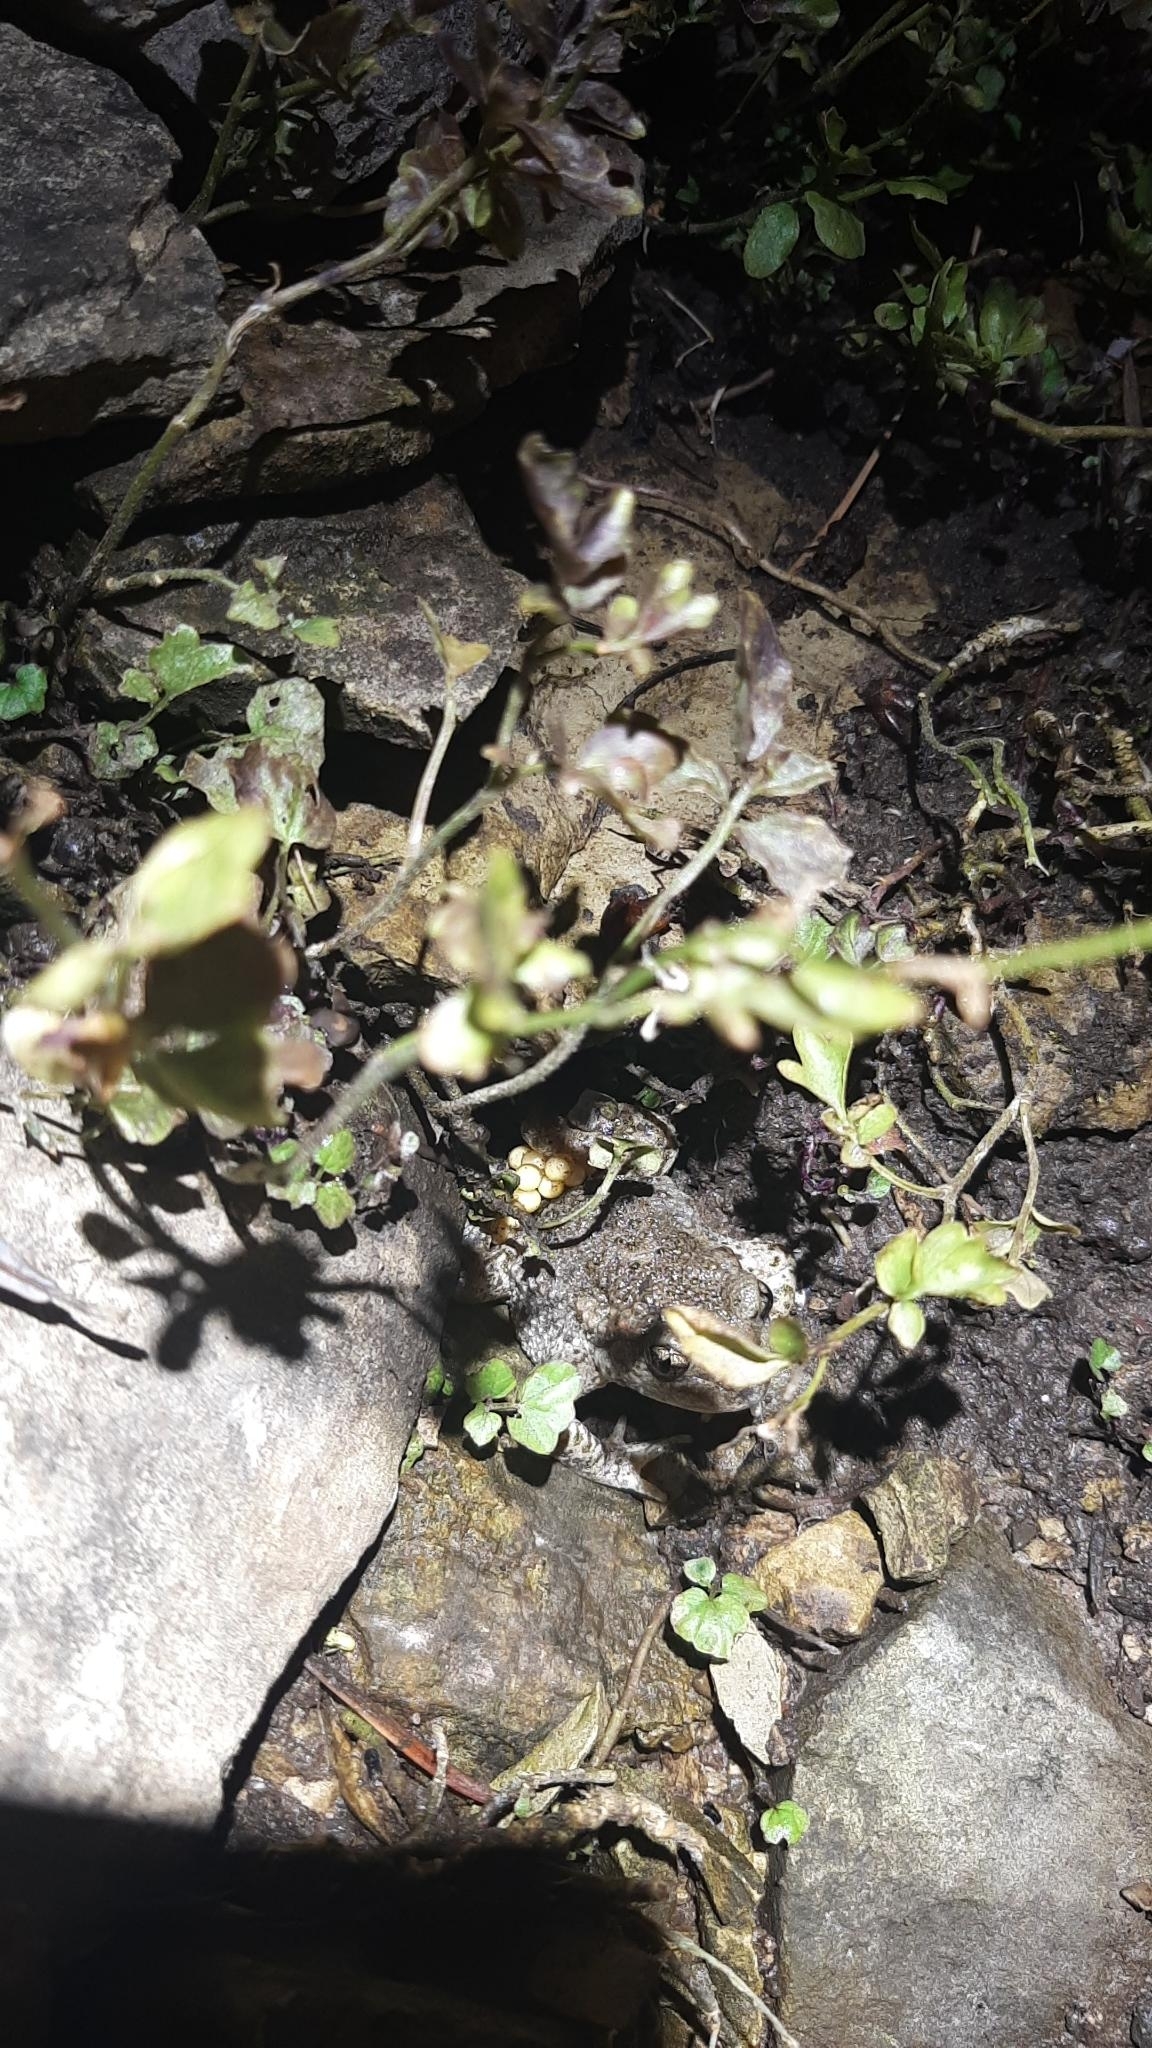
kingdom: Animalia
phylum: Chordata
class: Amphibia
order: Anura
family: Alytidae
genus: Alytes
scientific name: Alytes obstetricans
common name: Midwife toad
